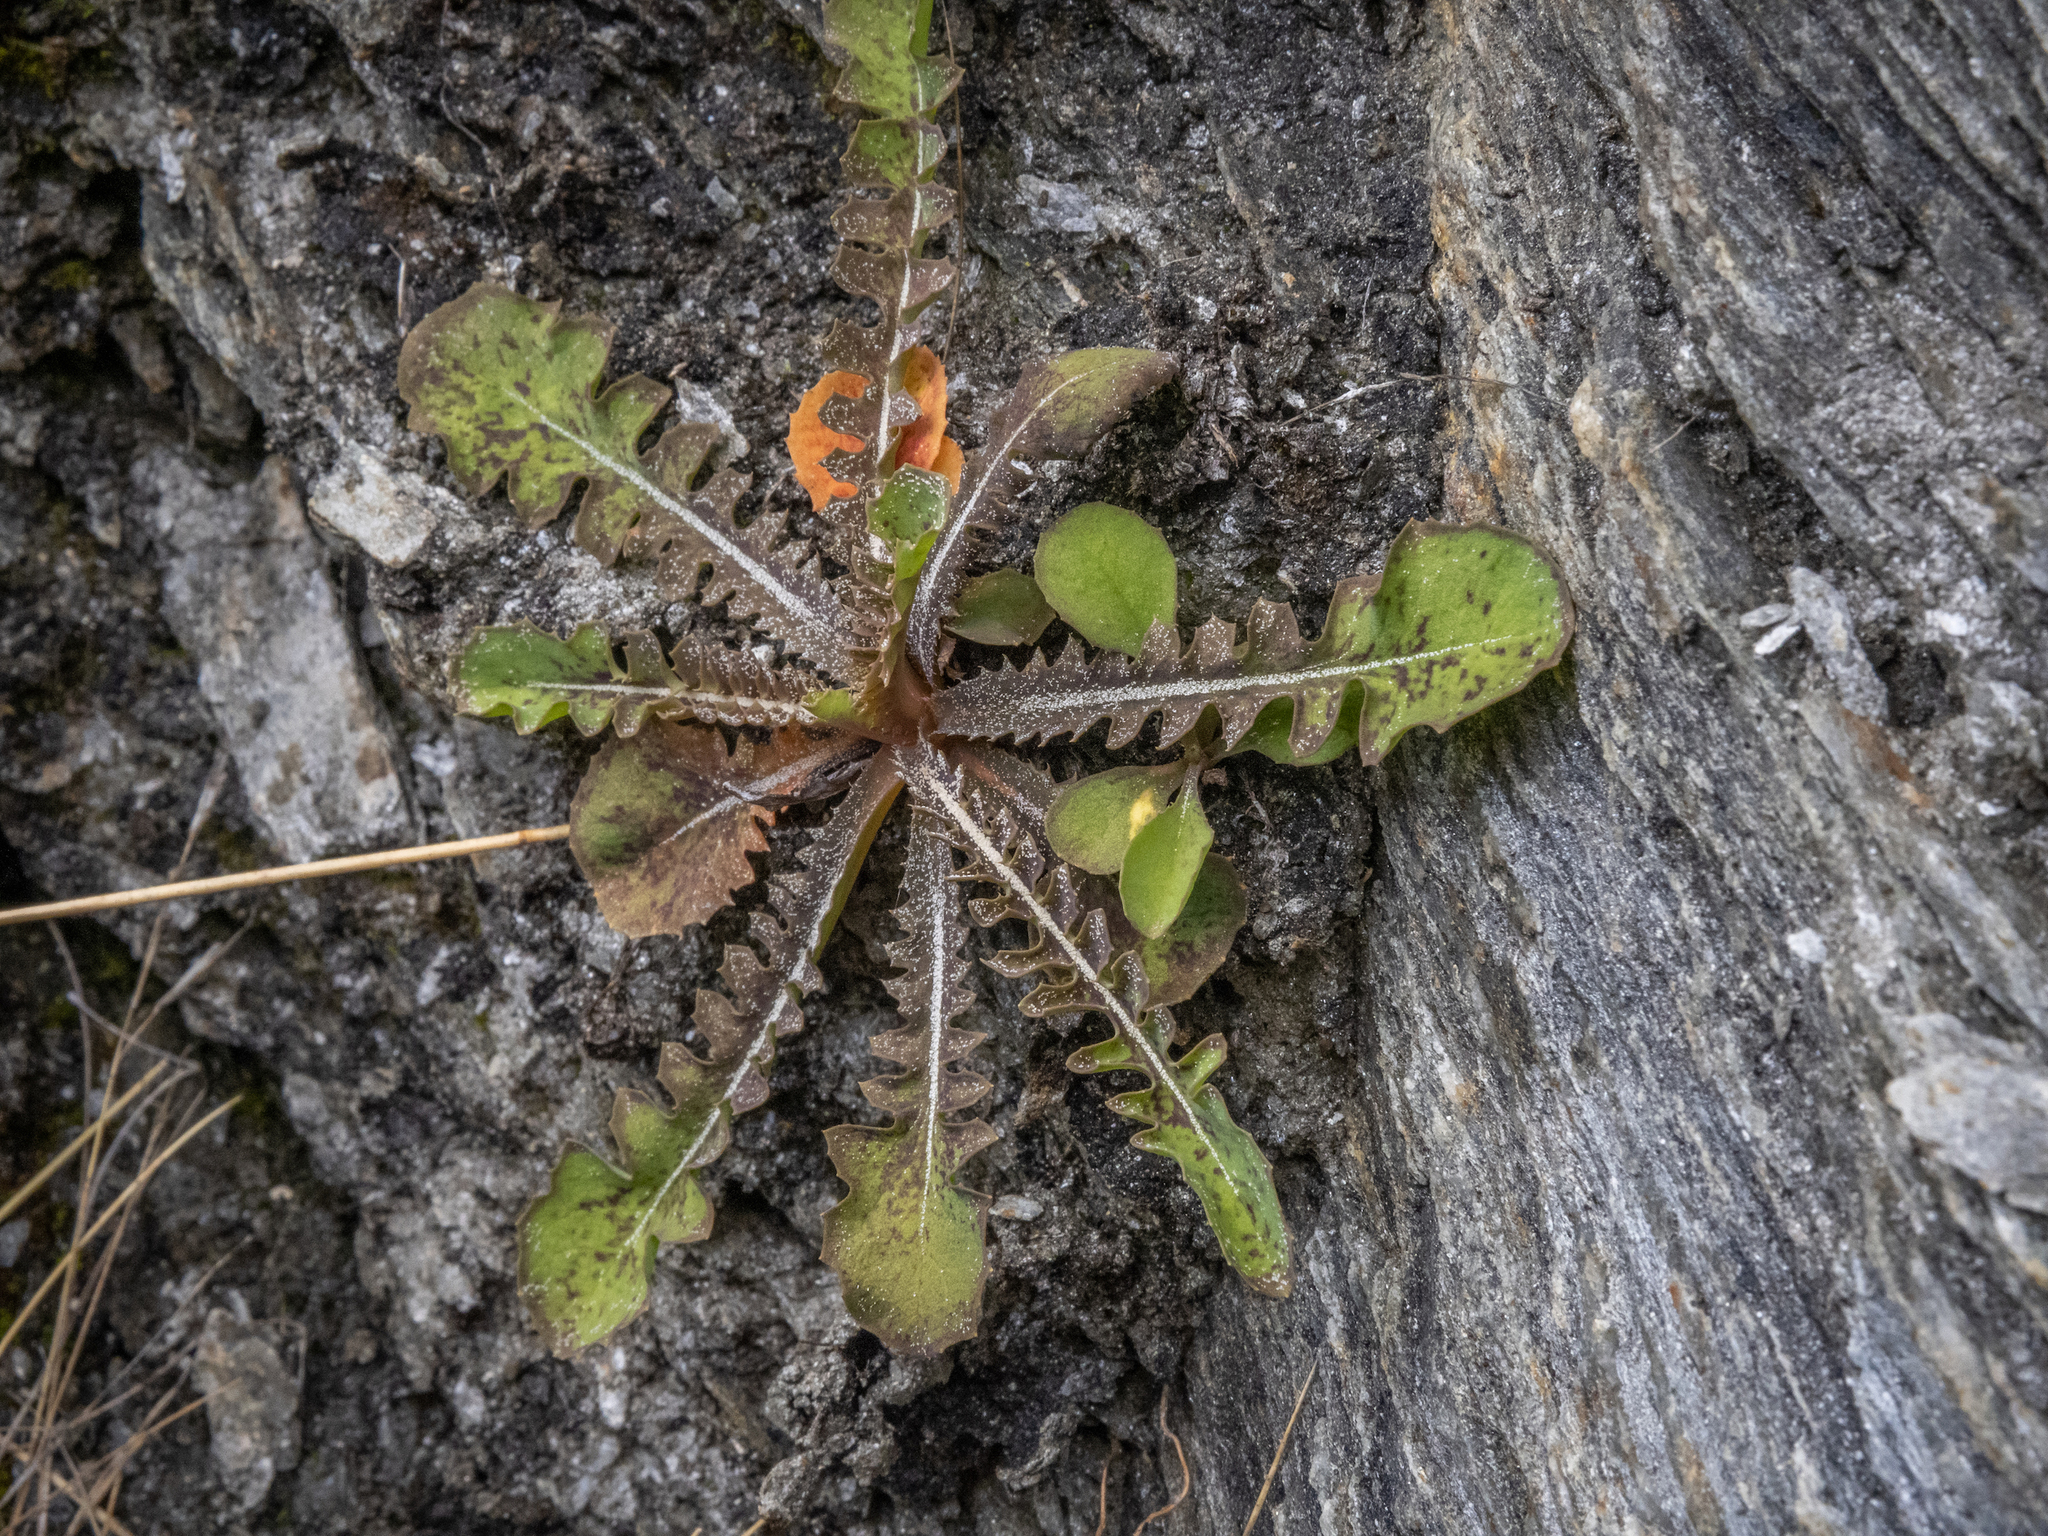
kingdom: Plantae
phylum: Tracheophyta
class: Magnoliopsida
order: Asterales
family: Asteraceae
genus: Sonchus
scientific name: Sonchus novae-zelandiae
